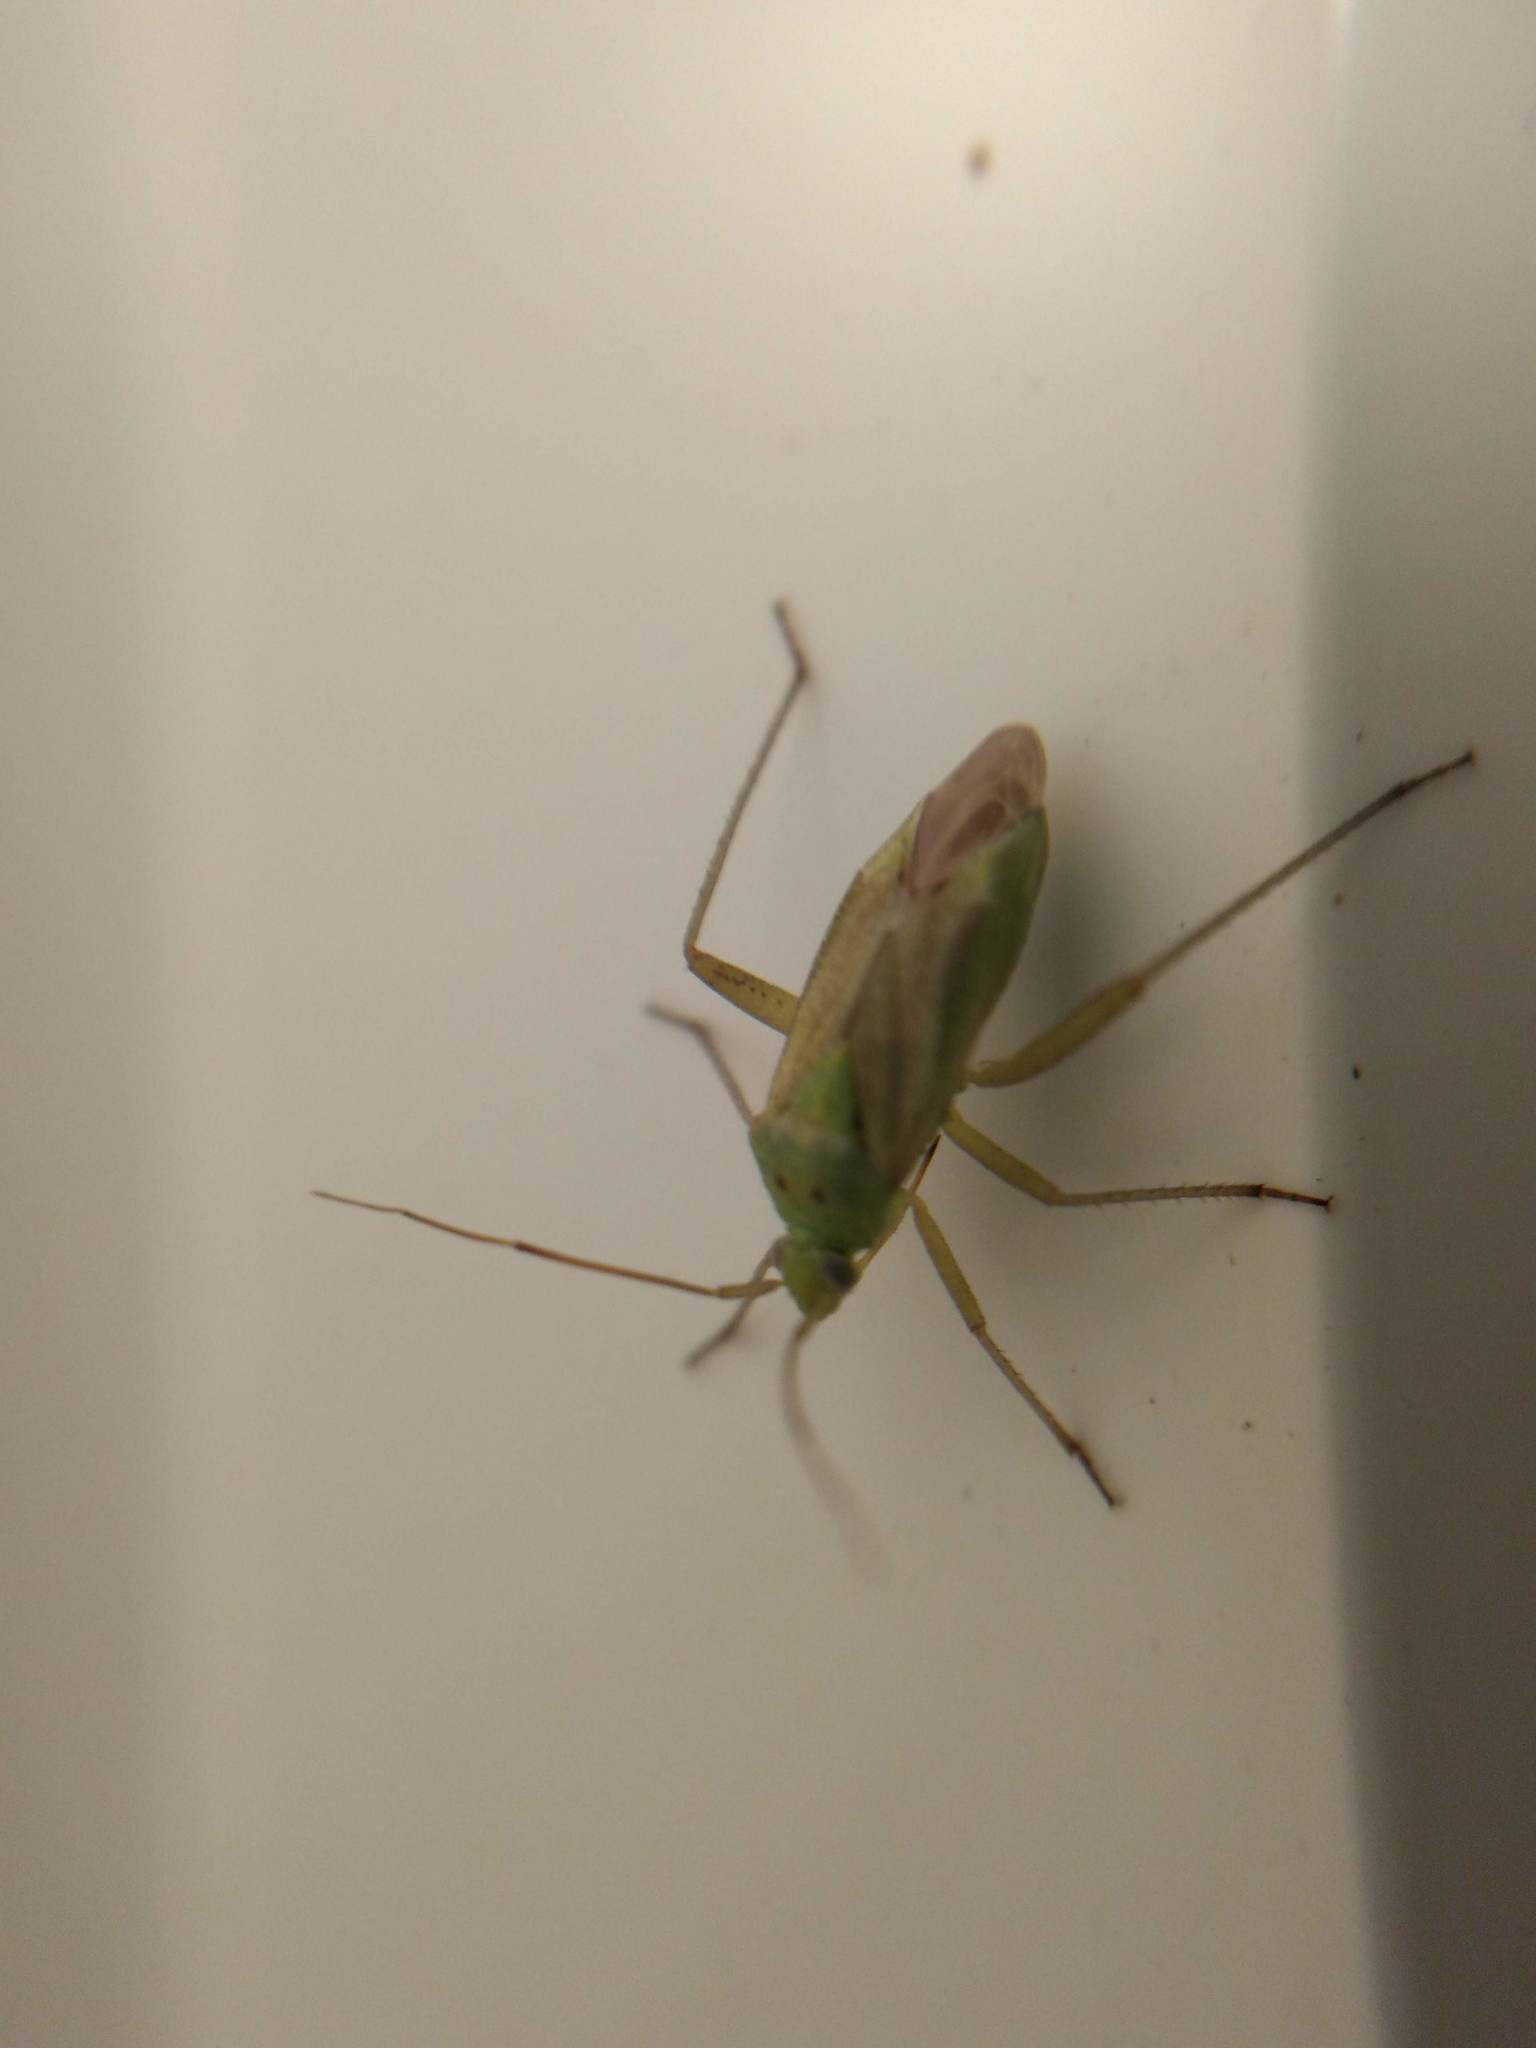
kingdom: Animalia
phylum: Arthropoda
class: Insecta
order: Hemiptera
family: Miridae
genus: Closterotomus
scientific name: Closterotomus norvegicus
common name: Plant bug
